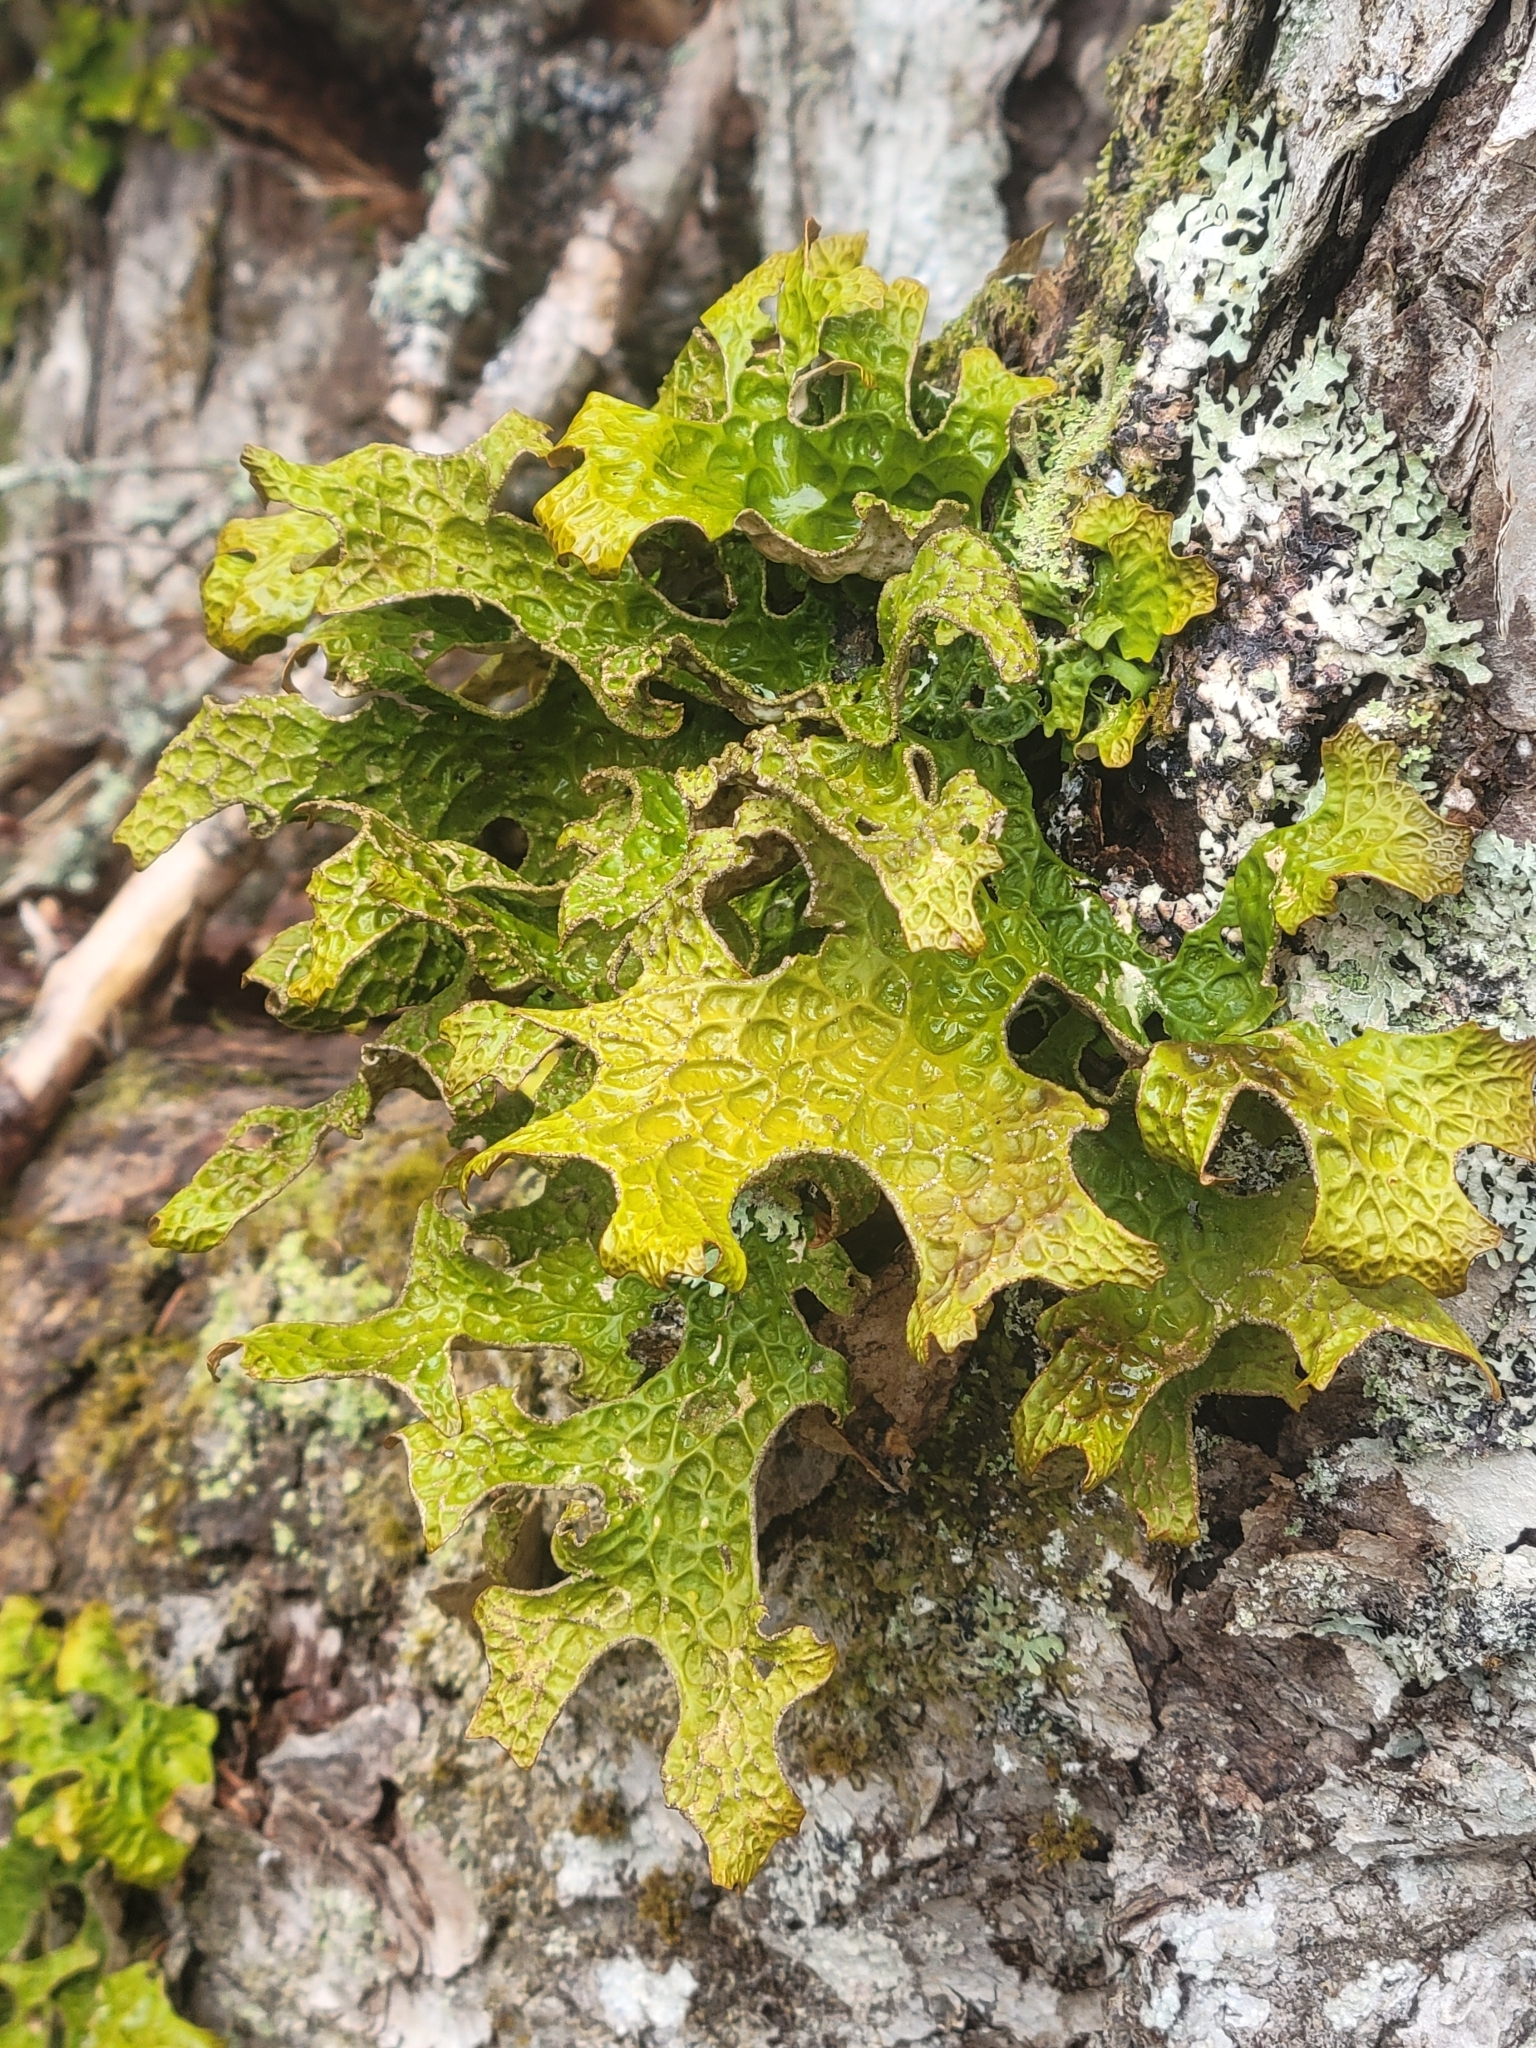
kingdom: Fungi
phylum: Ascomycota
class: Lecanoromycetes
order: Peltigerales
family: Lobariaceae
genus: Lobaria
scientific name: Lobaria pulmonaria
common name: Lungwort
